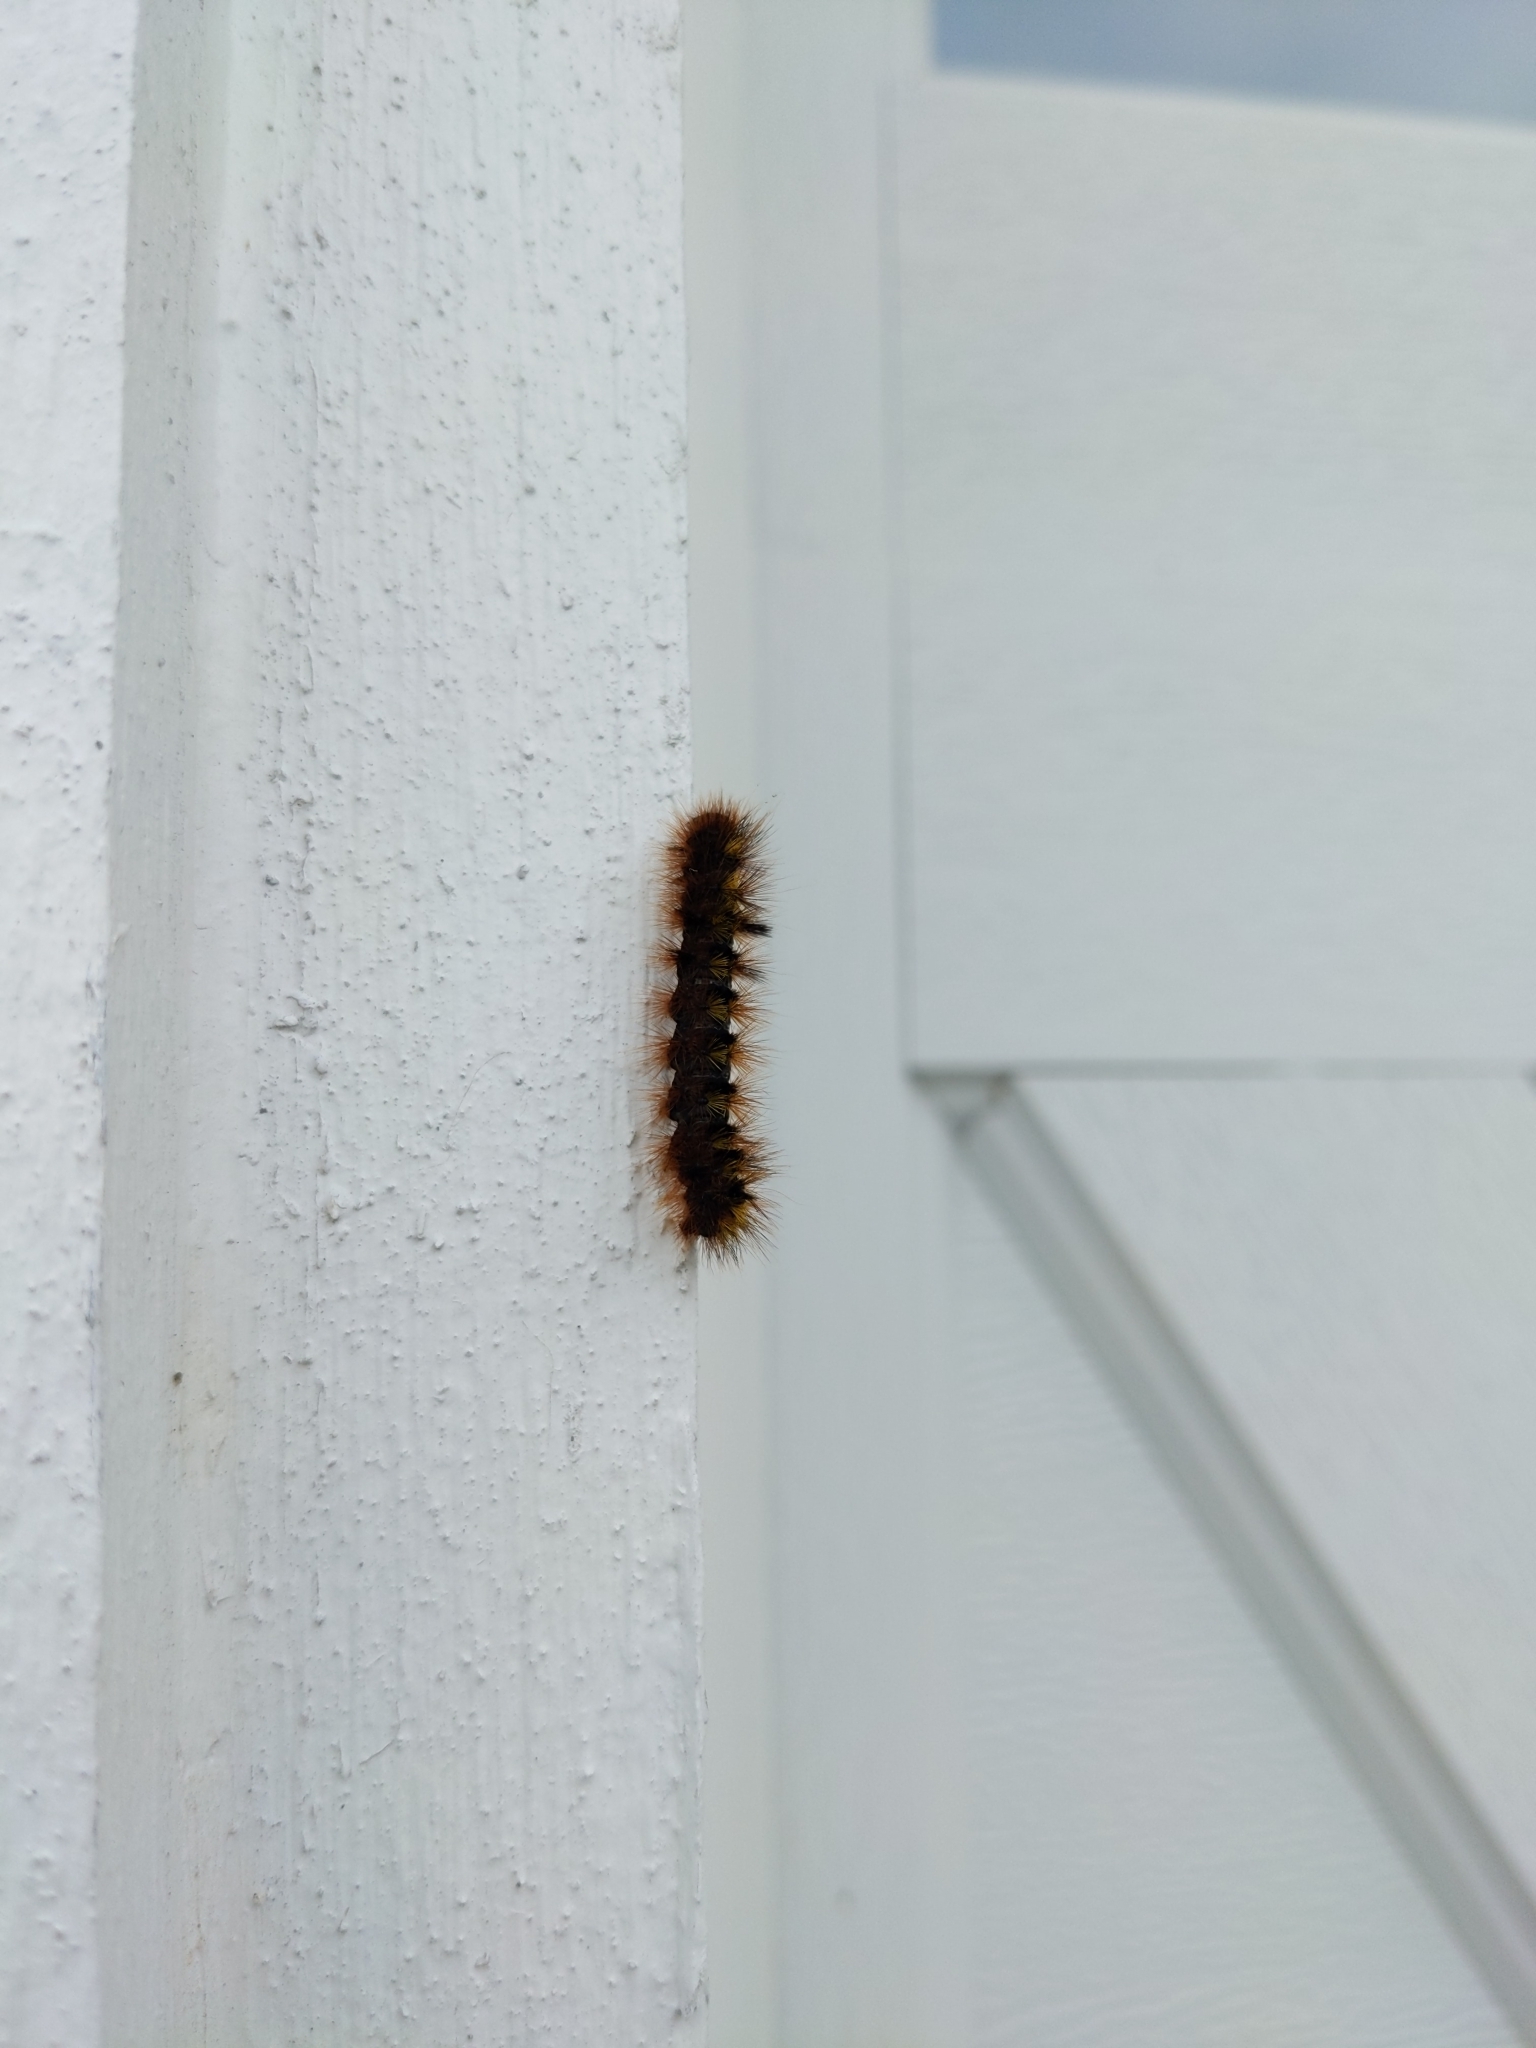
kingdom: Animalia
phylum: Arthropoda
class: Insecta
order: Lepidoptera
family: Erebidae
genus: Lophocampa
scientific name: Lophocampa argentata
